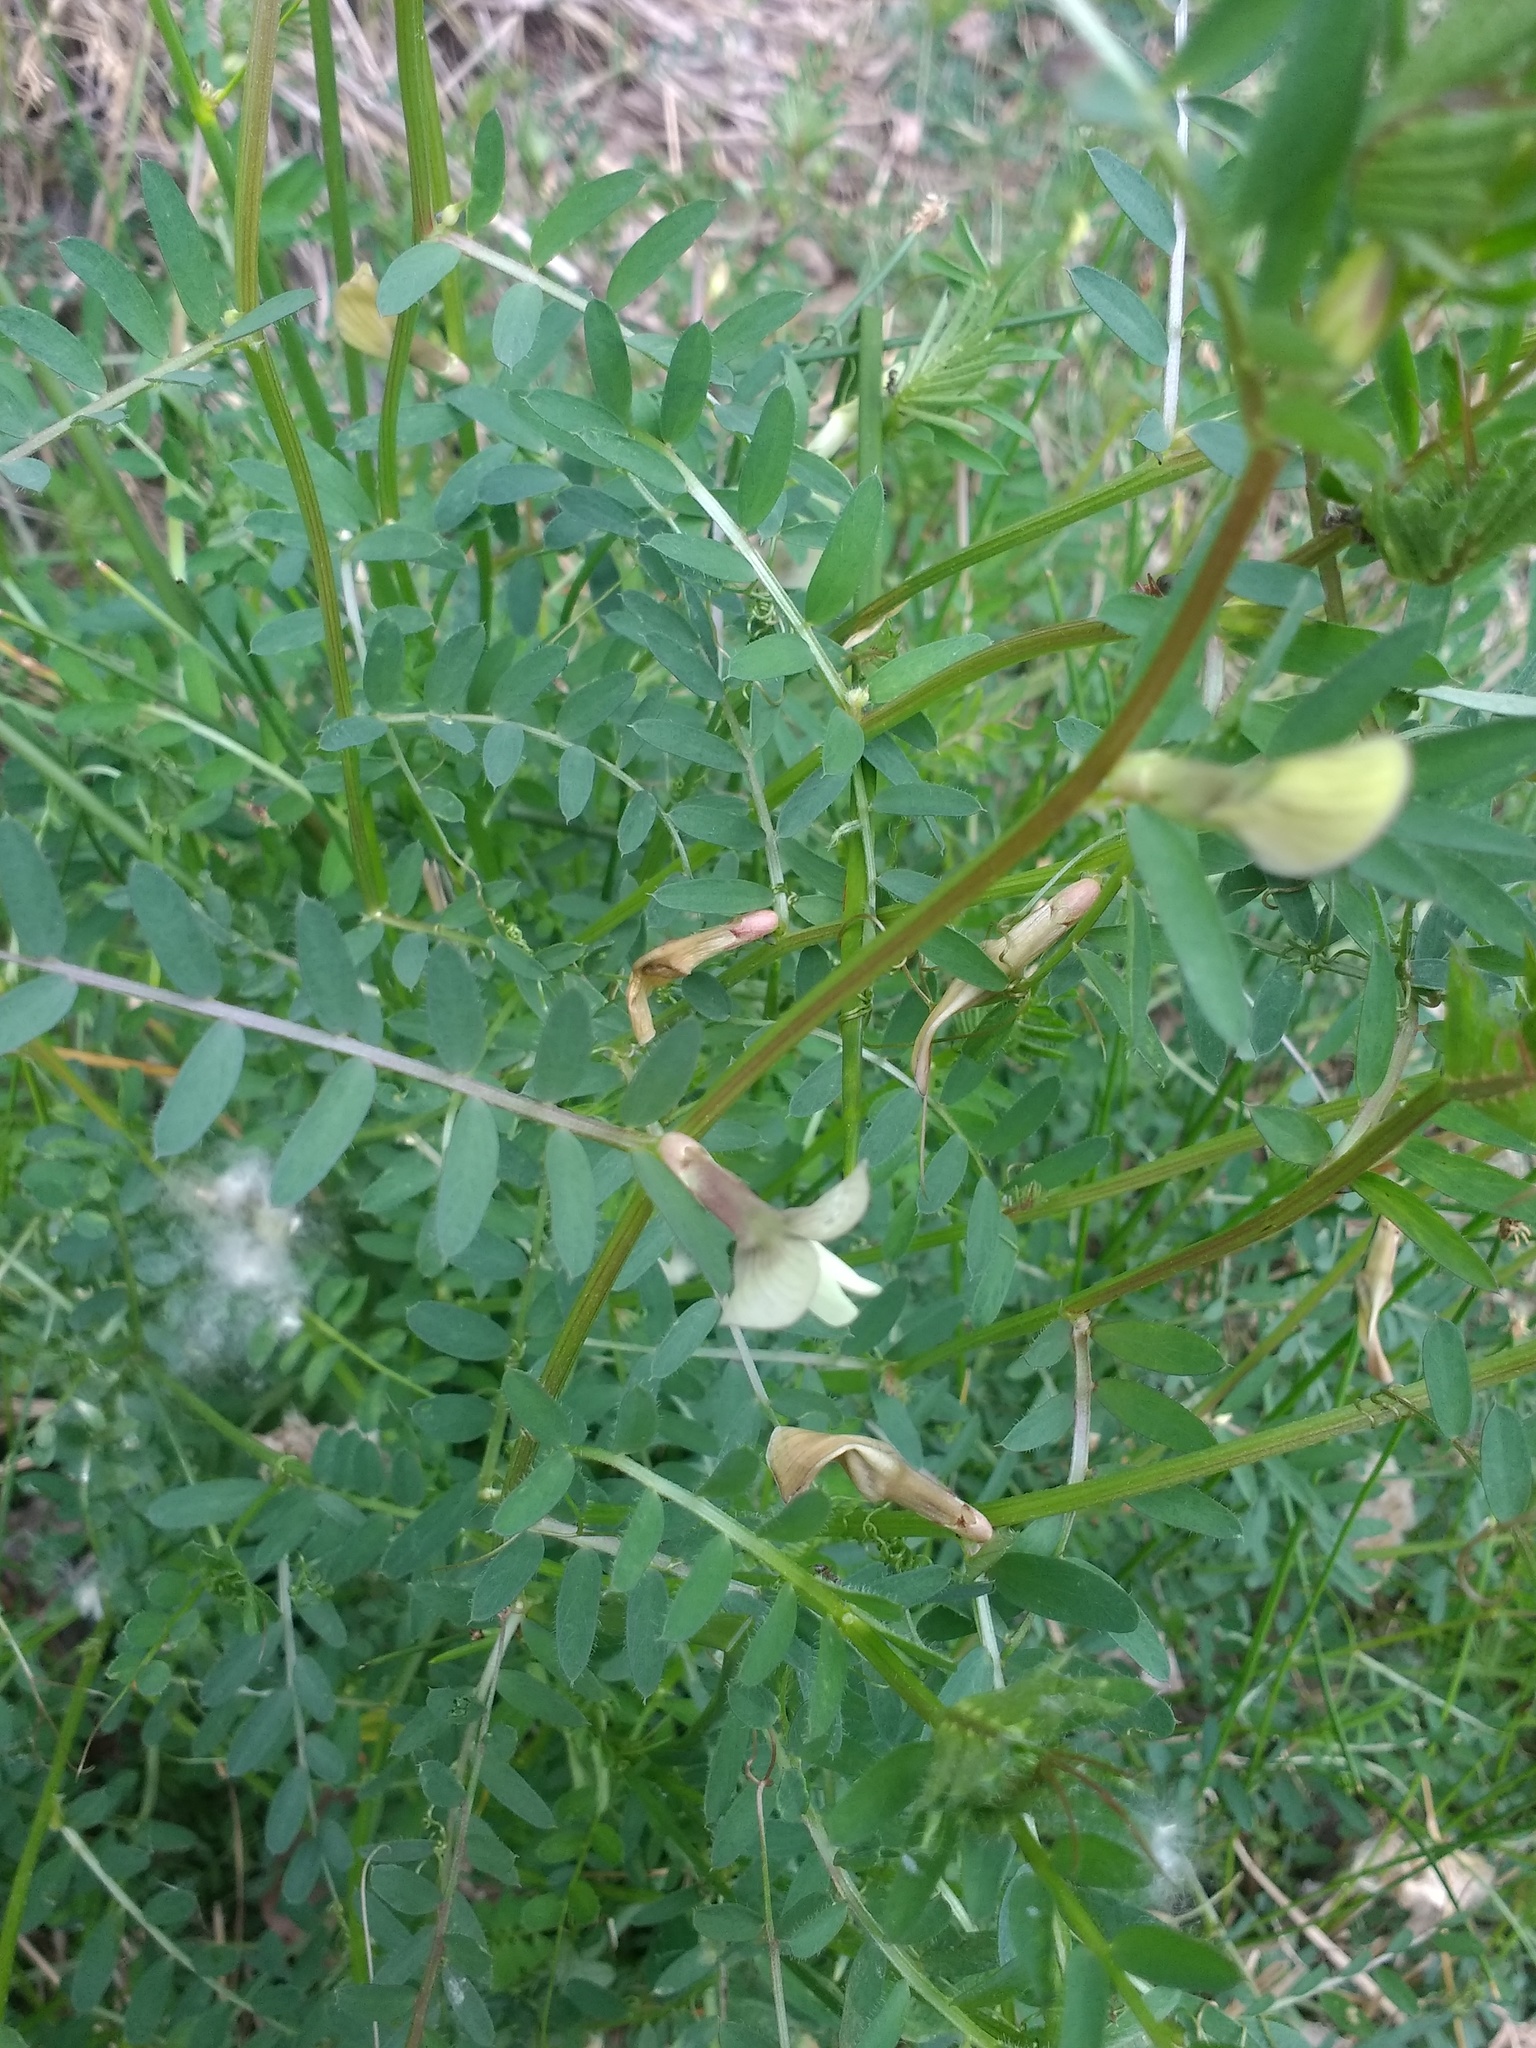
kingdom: Plantae
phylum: Tracheophyta
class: Magnoliopsida
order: Fabales
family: Fabaceae
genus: Vicia
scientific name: Vicia lutea
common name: Smooth yellow vetch
